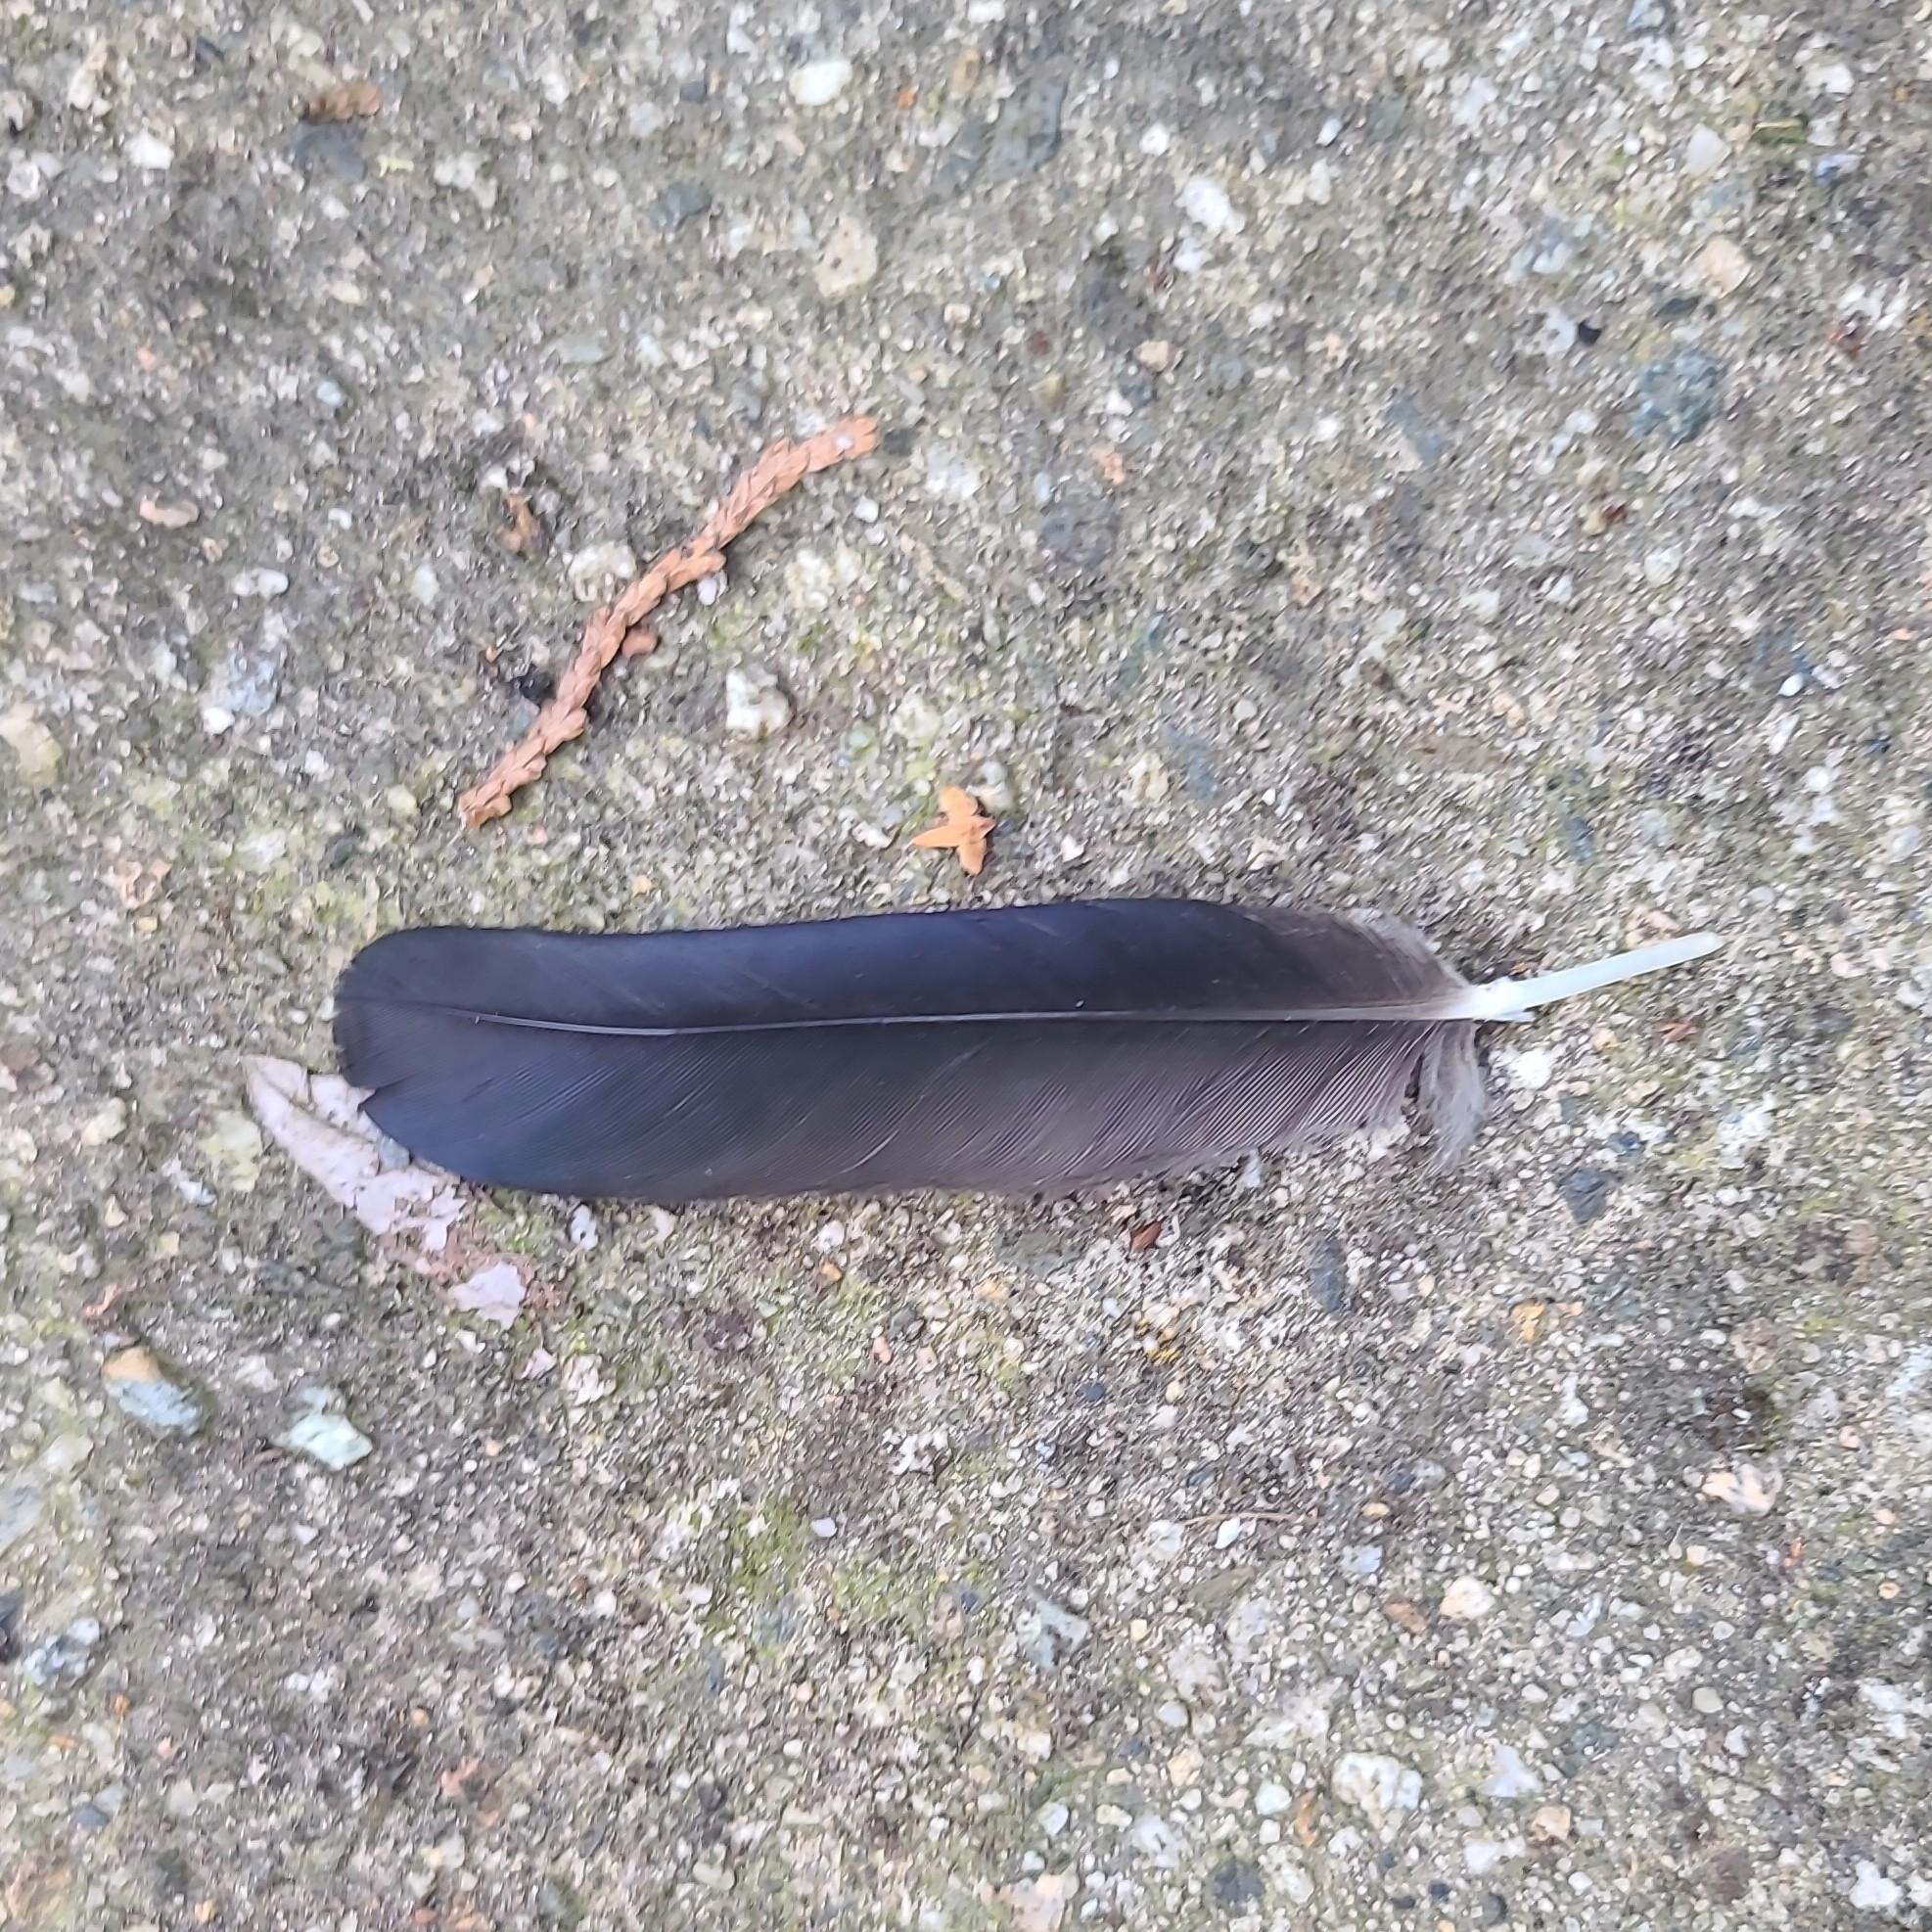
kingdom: Animalia
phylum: Chordata
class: Aves
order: Passeriformes
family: Corvidae
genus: Corvus
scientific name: Corvus brachyrhynchos
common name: American crow
